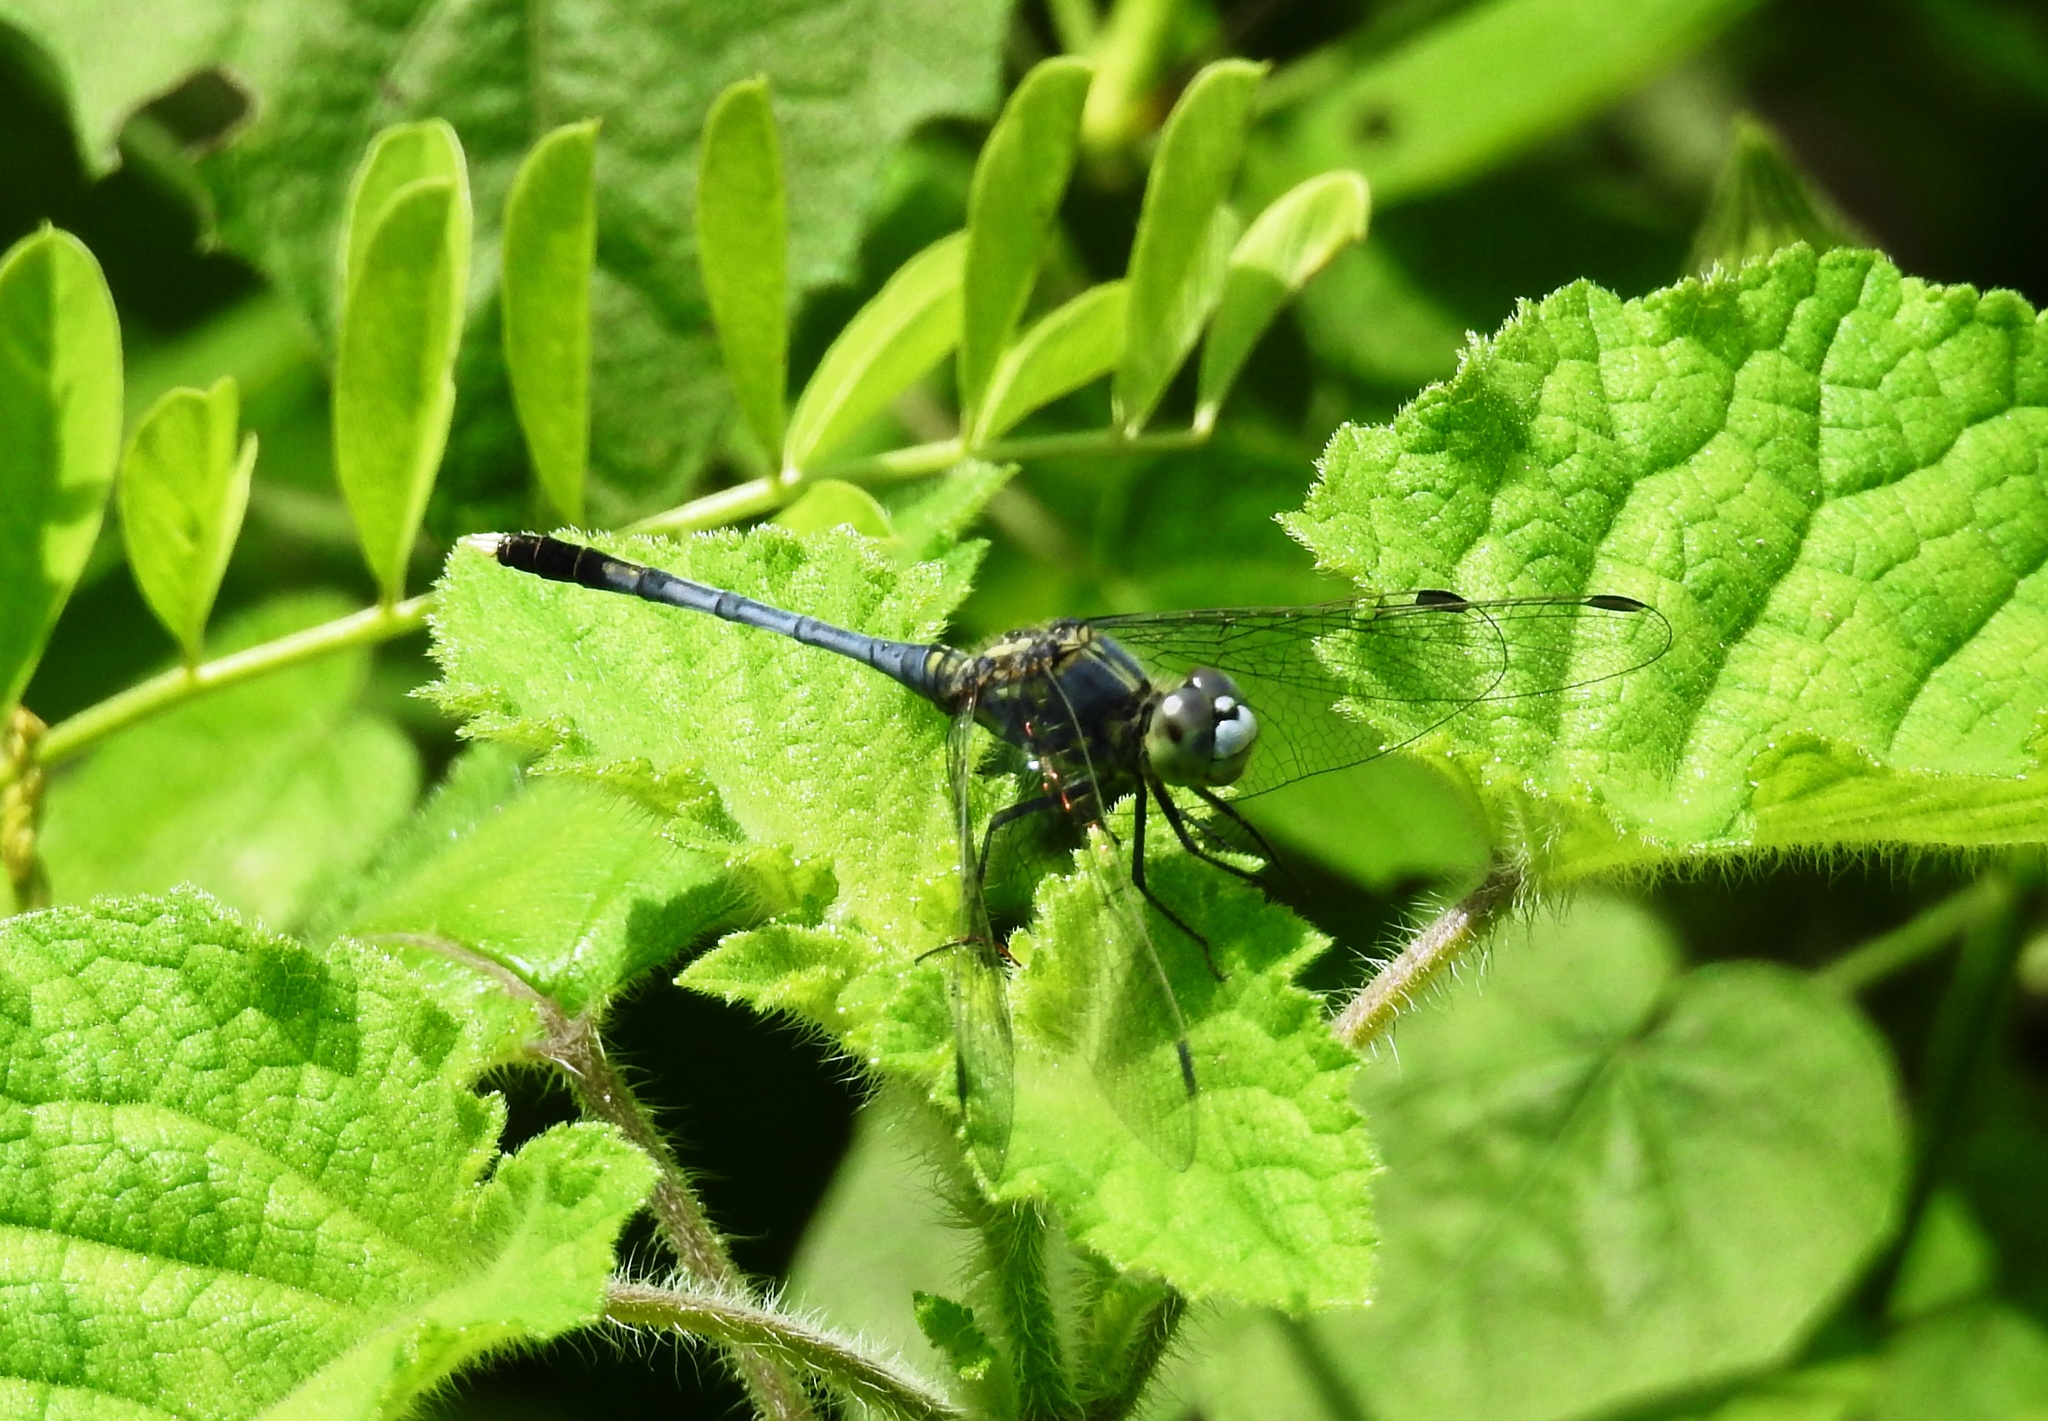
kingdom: Animalia
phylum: Arthropoda
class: Insecta
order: Odonata
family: Libellulidae
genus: Diplacodes
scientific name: Diplacodes trivialis
